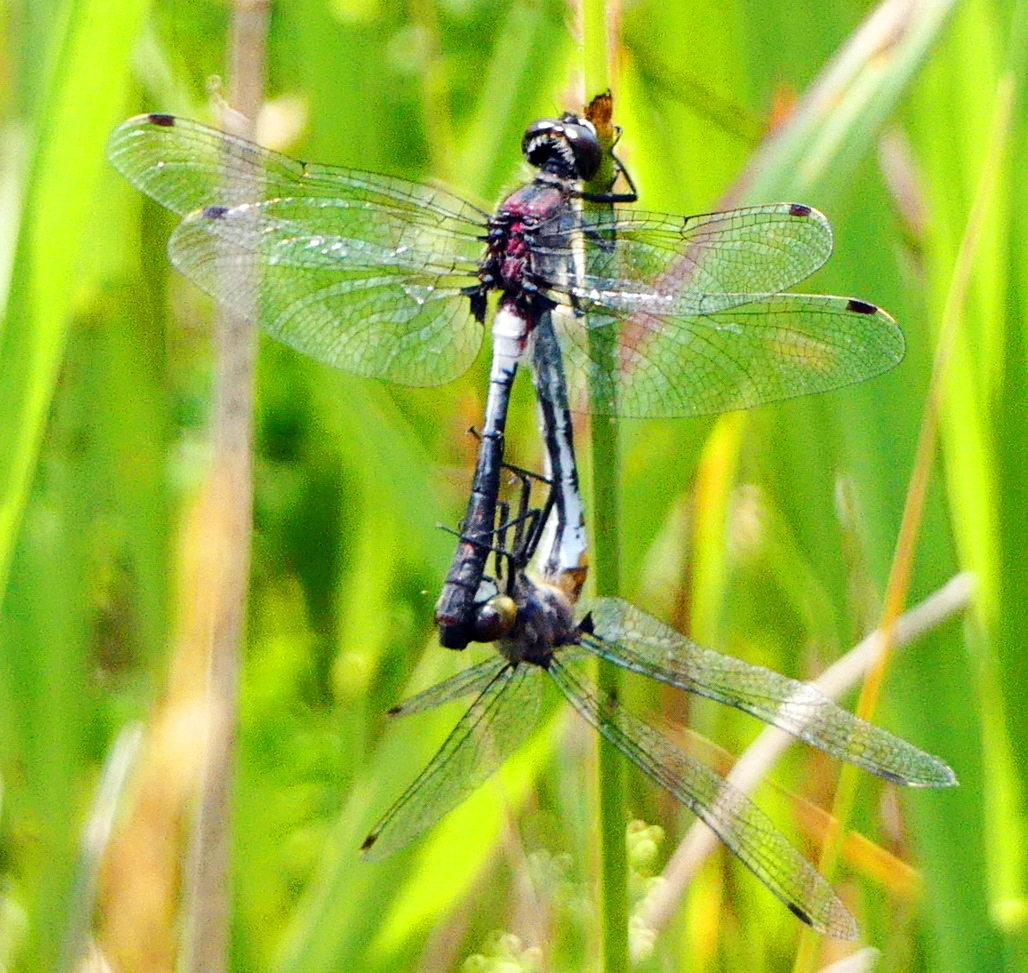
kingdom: Animalia
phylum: Arthropoda
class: Insecta
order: Odonata
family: Libellulidae
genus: Leucorrhinia
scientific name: Leucorrhinia proxima
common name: Belted whiteface
